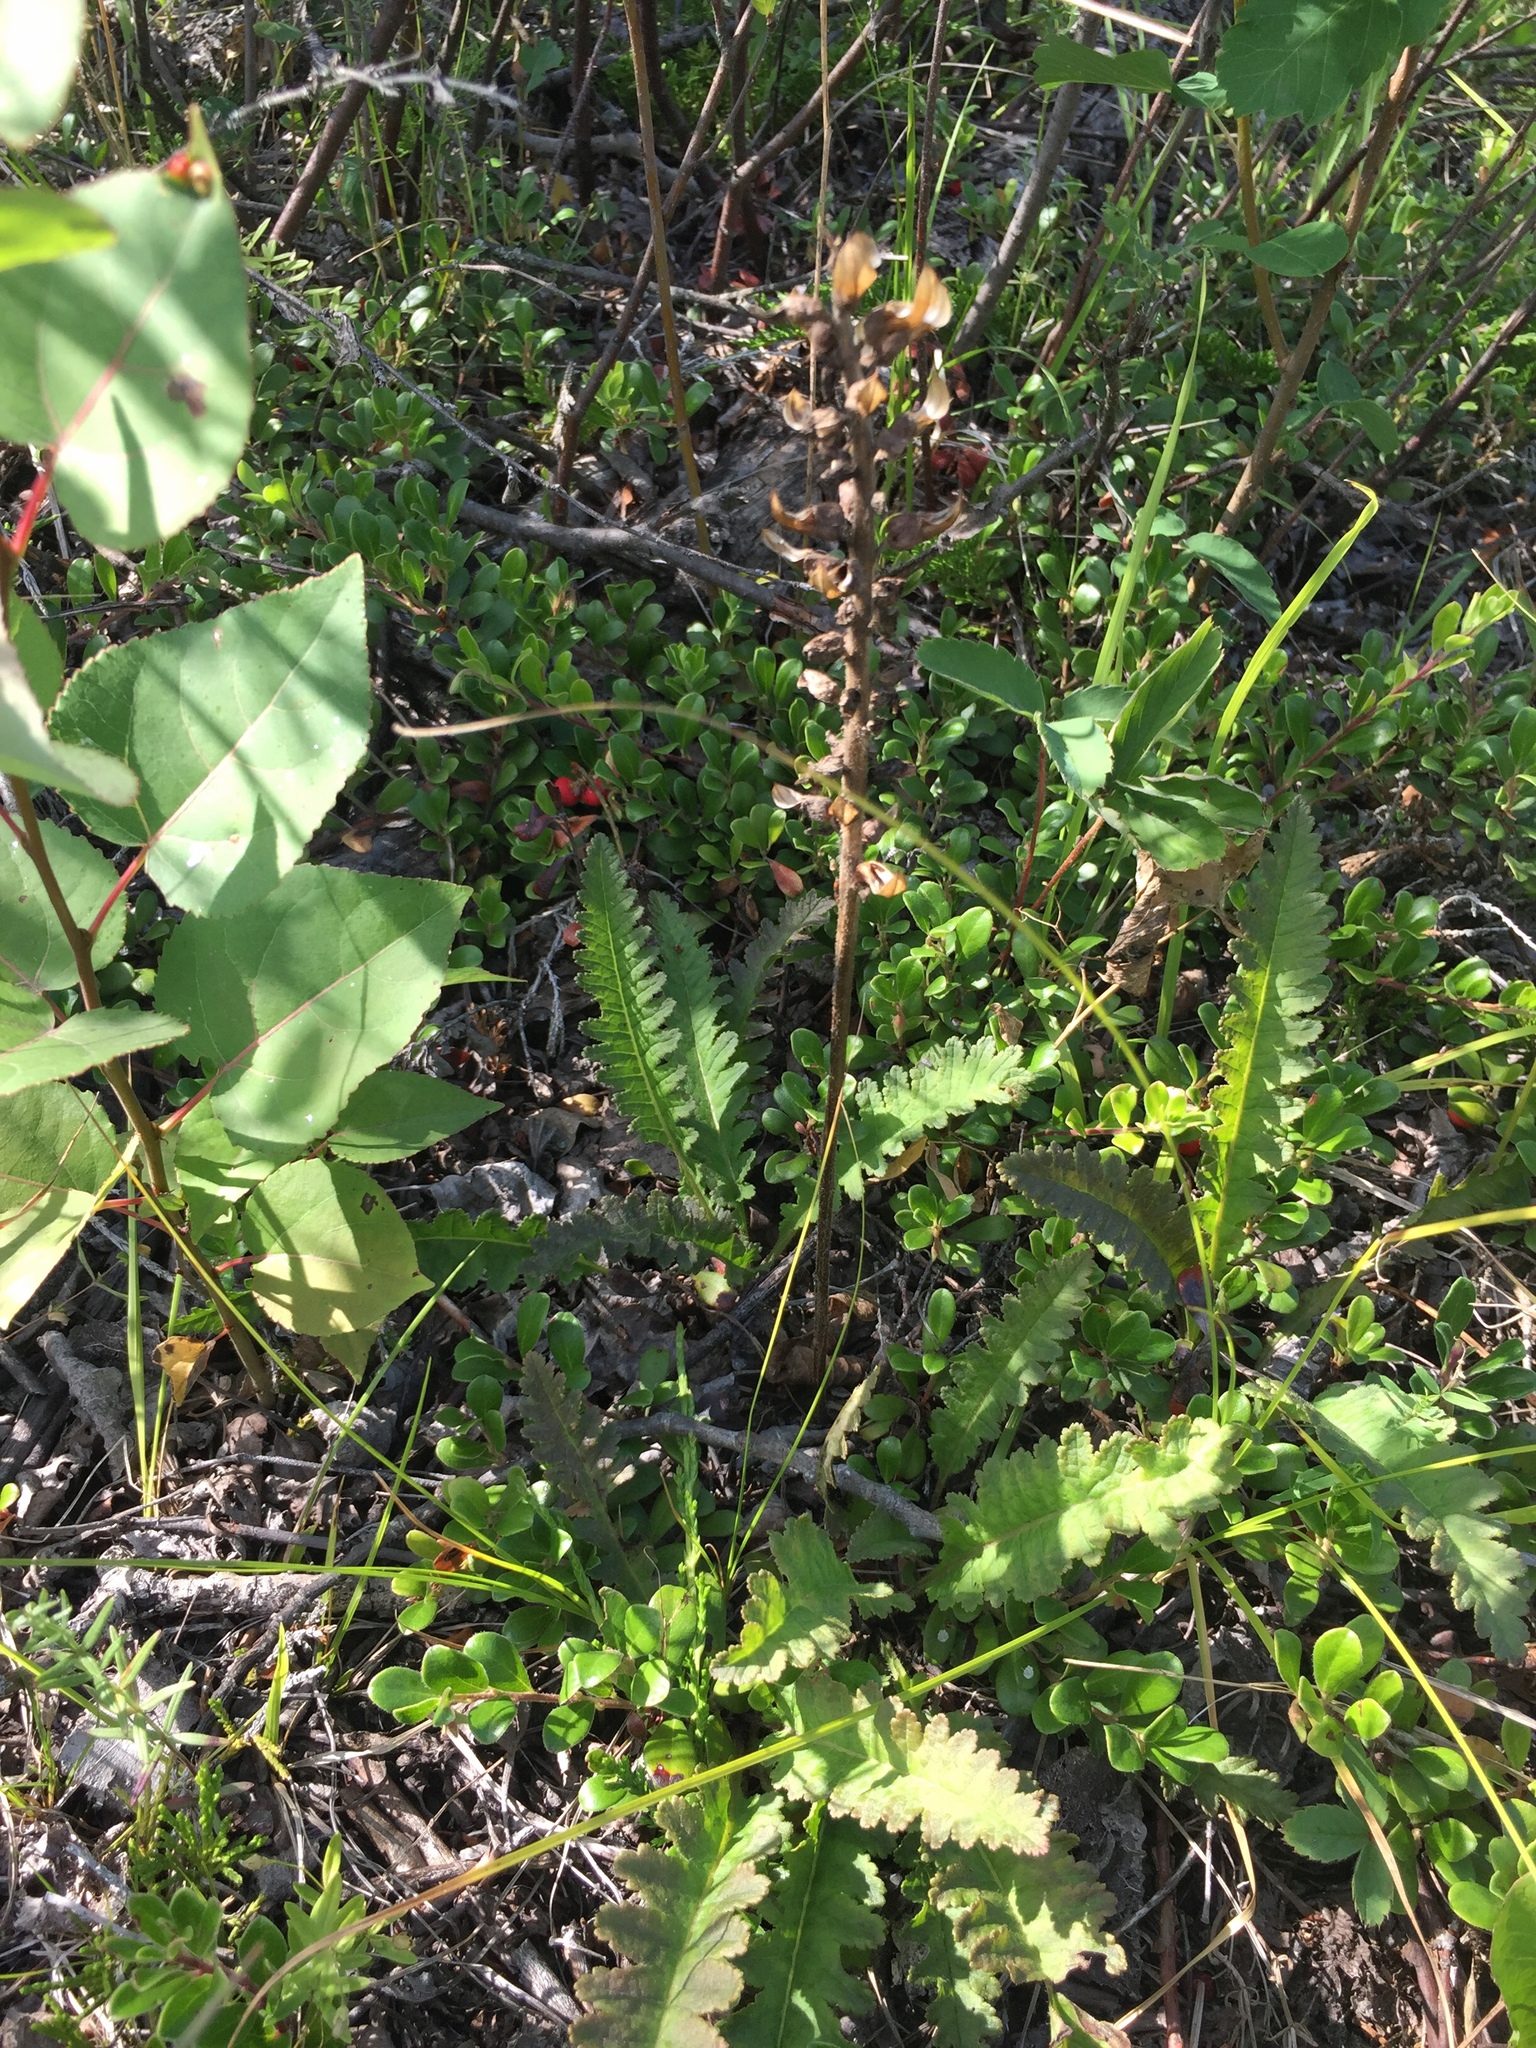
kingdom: Plantae
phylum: Tracheophyta
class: Magnoliopsida
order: Lamiales
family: Orobanchaceae
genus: Pedicularis
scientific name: Pedicularis canadensis
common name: Early lousewort
